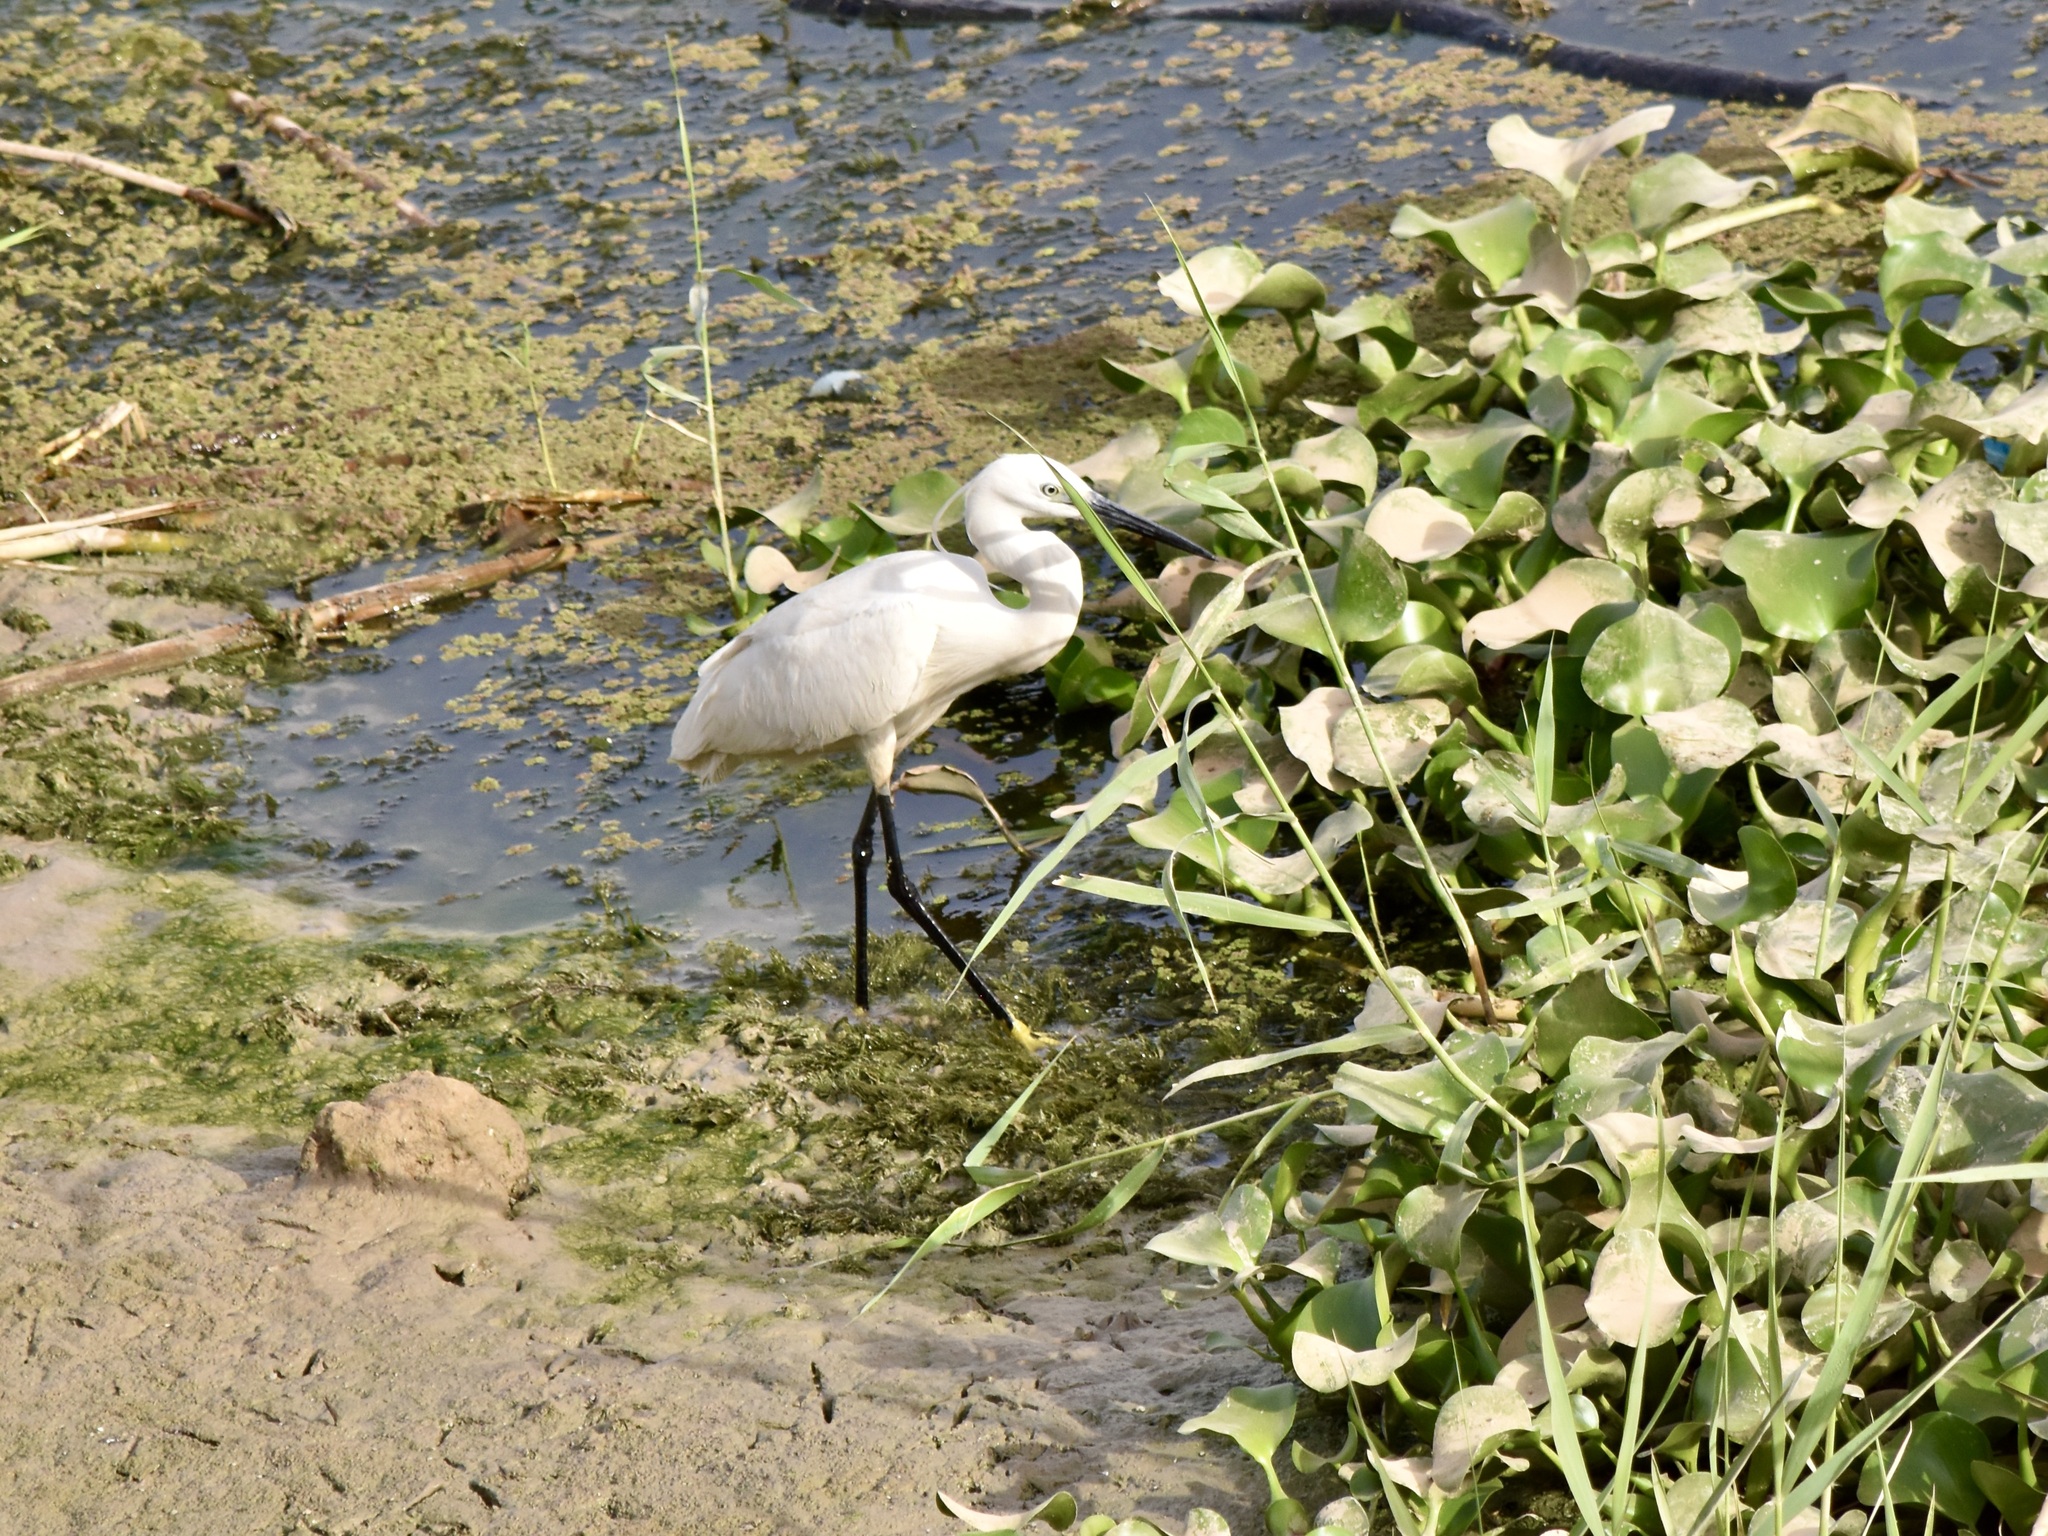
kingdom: Animalia
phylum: Chordata
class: Aves
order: Pelecaniformes
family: Ardeidae
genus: Egretta
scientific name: Egretta garzetta
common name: Little egret
